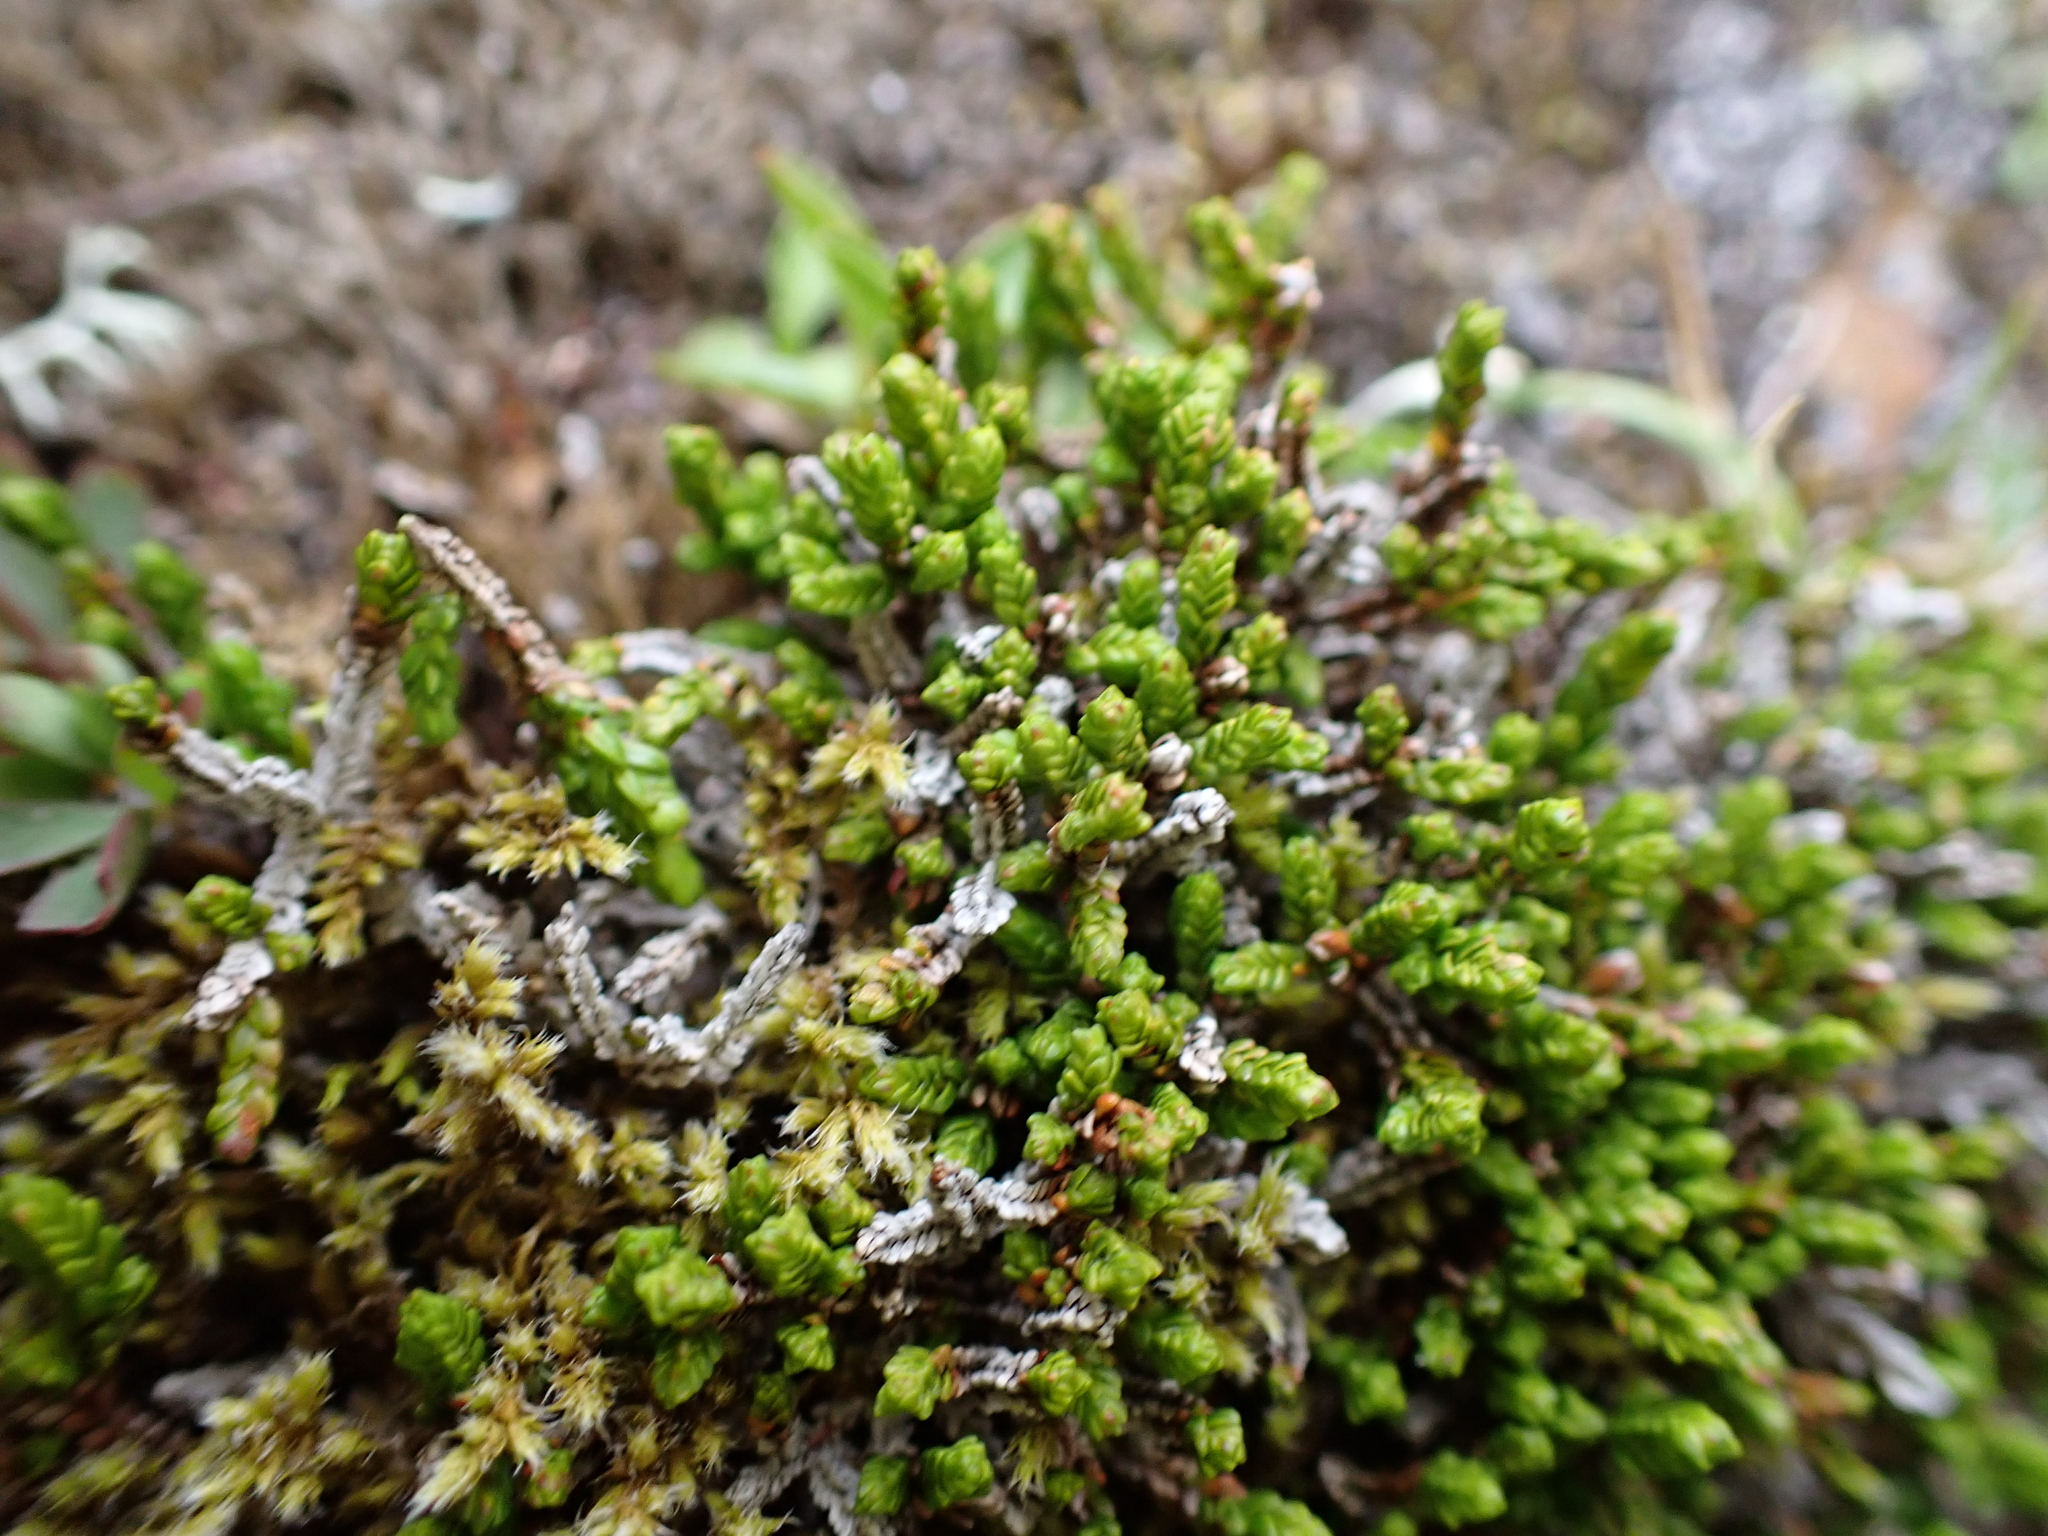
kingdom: Plantae
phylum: Tracheophyta
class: Magnoliopsida
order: Ericales
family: Ericaceae
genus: Cassiope
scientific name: Cassiope tetragona
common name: Arctic bell heather
